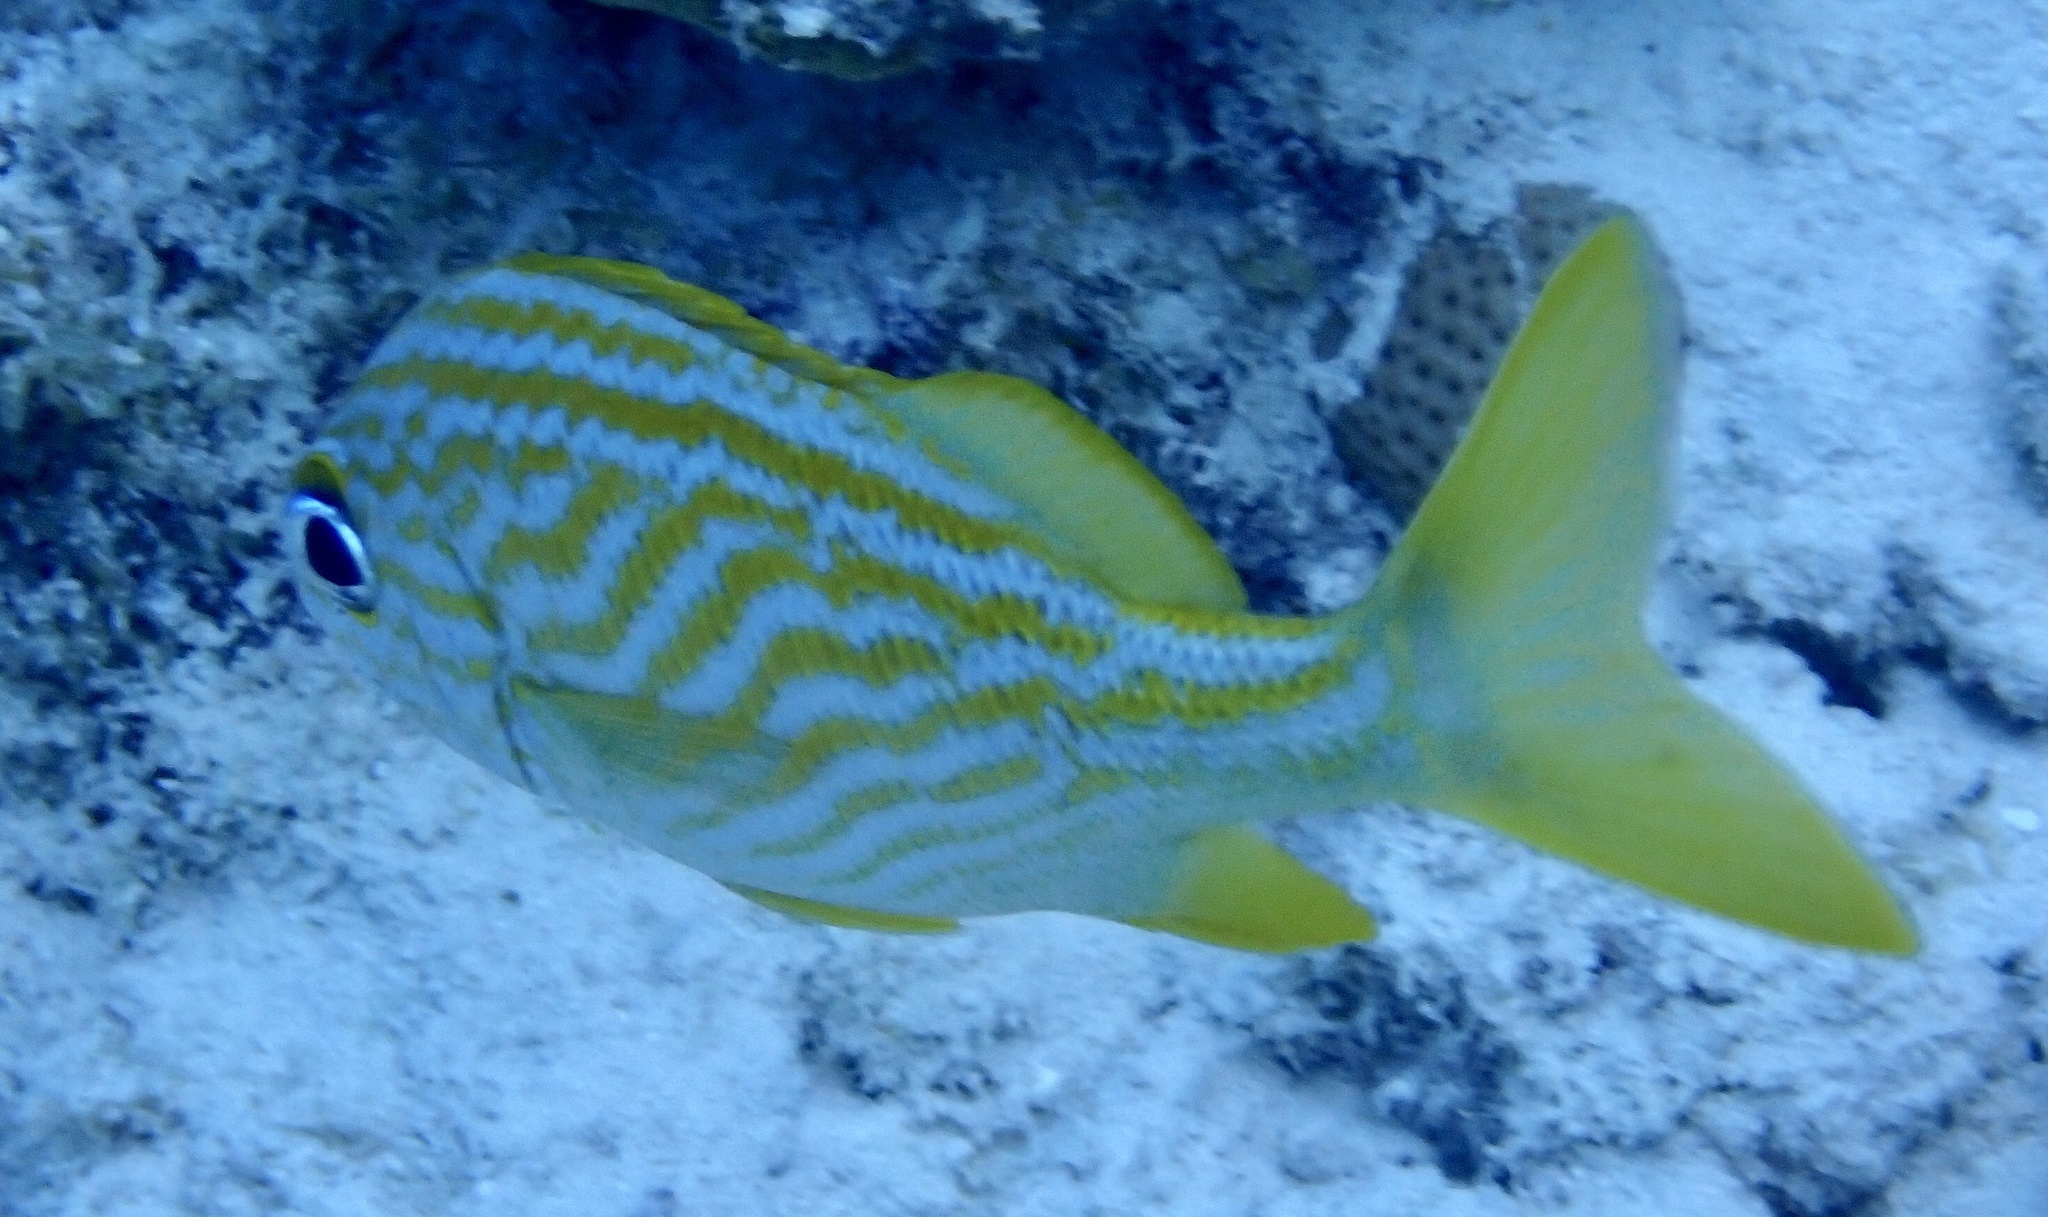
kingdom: Animalia
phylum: Chordata
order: Perciformes
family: Haemulidae
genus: Haemulon
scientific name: Haemulon flavolineatum
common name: French grunt
